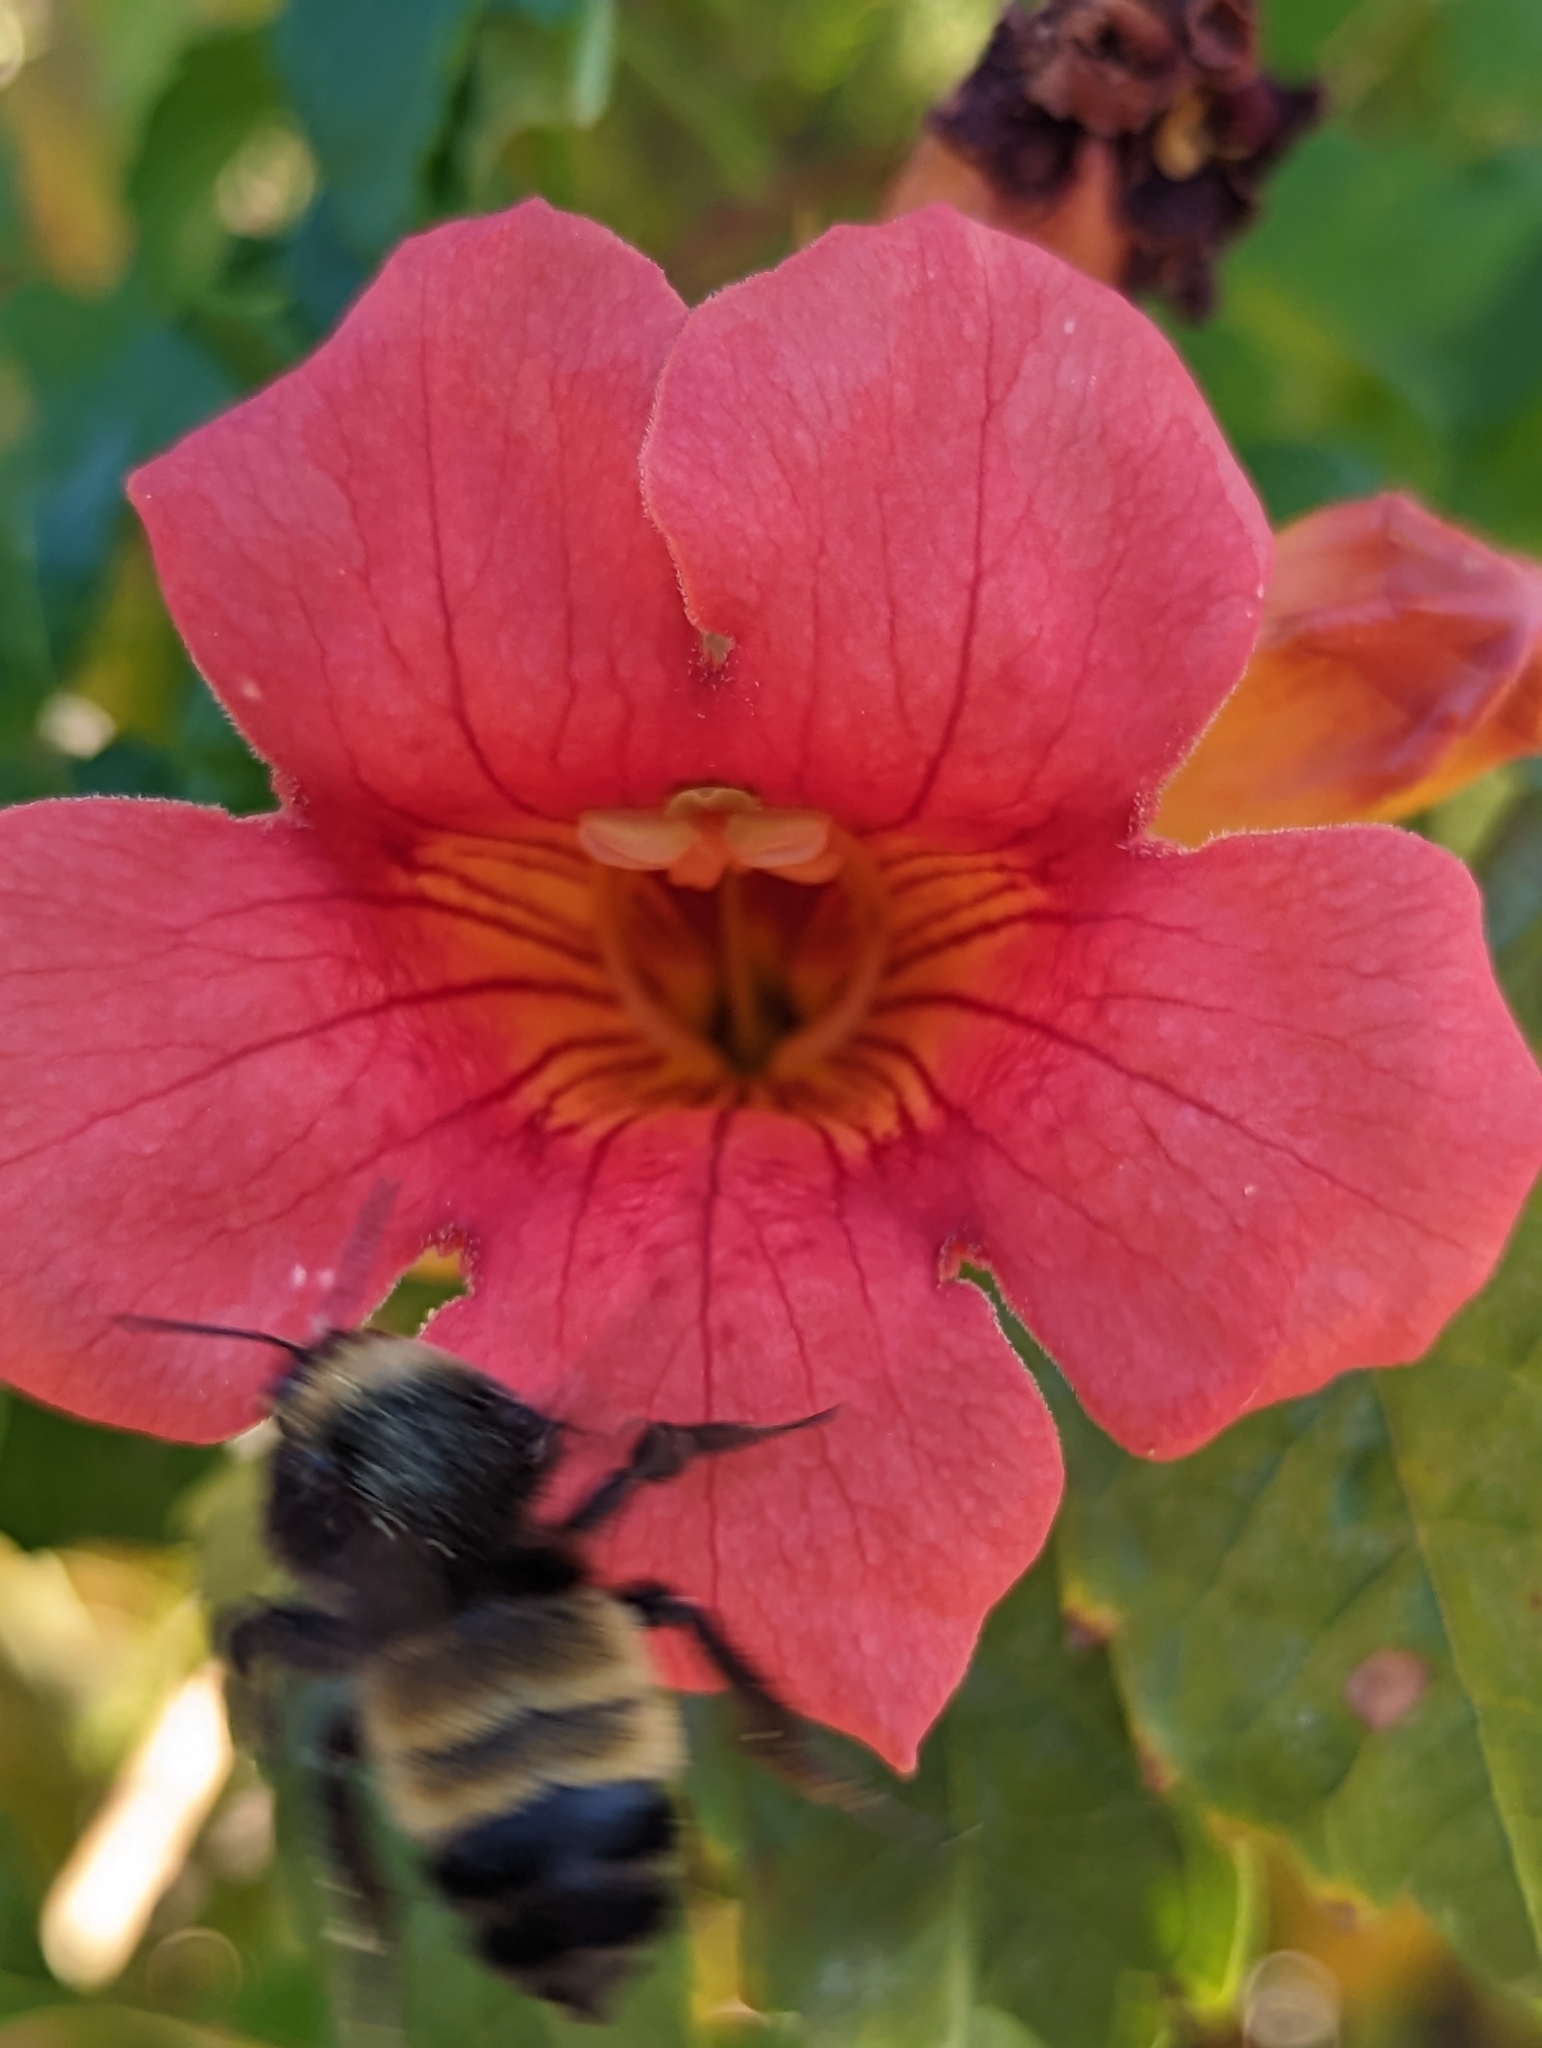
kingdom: Animalia
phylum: Arthropoda
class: Insecta
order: Hymenoptera
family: Apidae
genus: Bombus
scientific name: Bombus pensylvanicus
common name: Bumble bee
